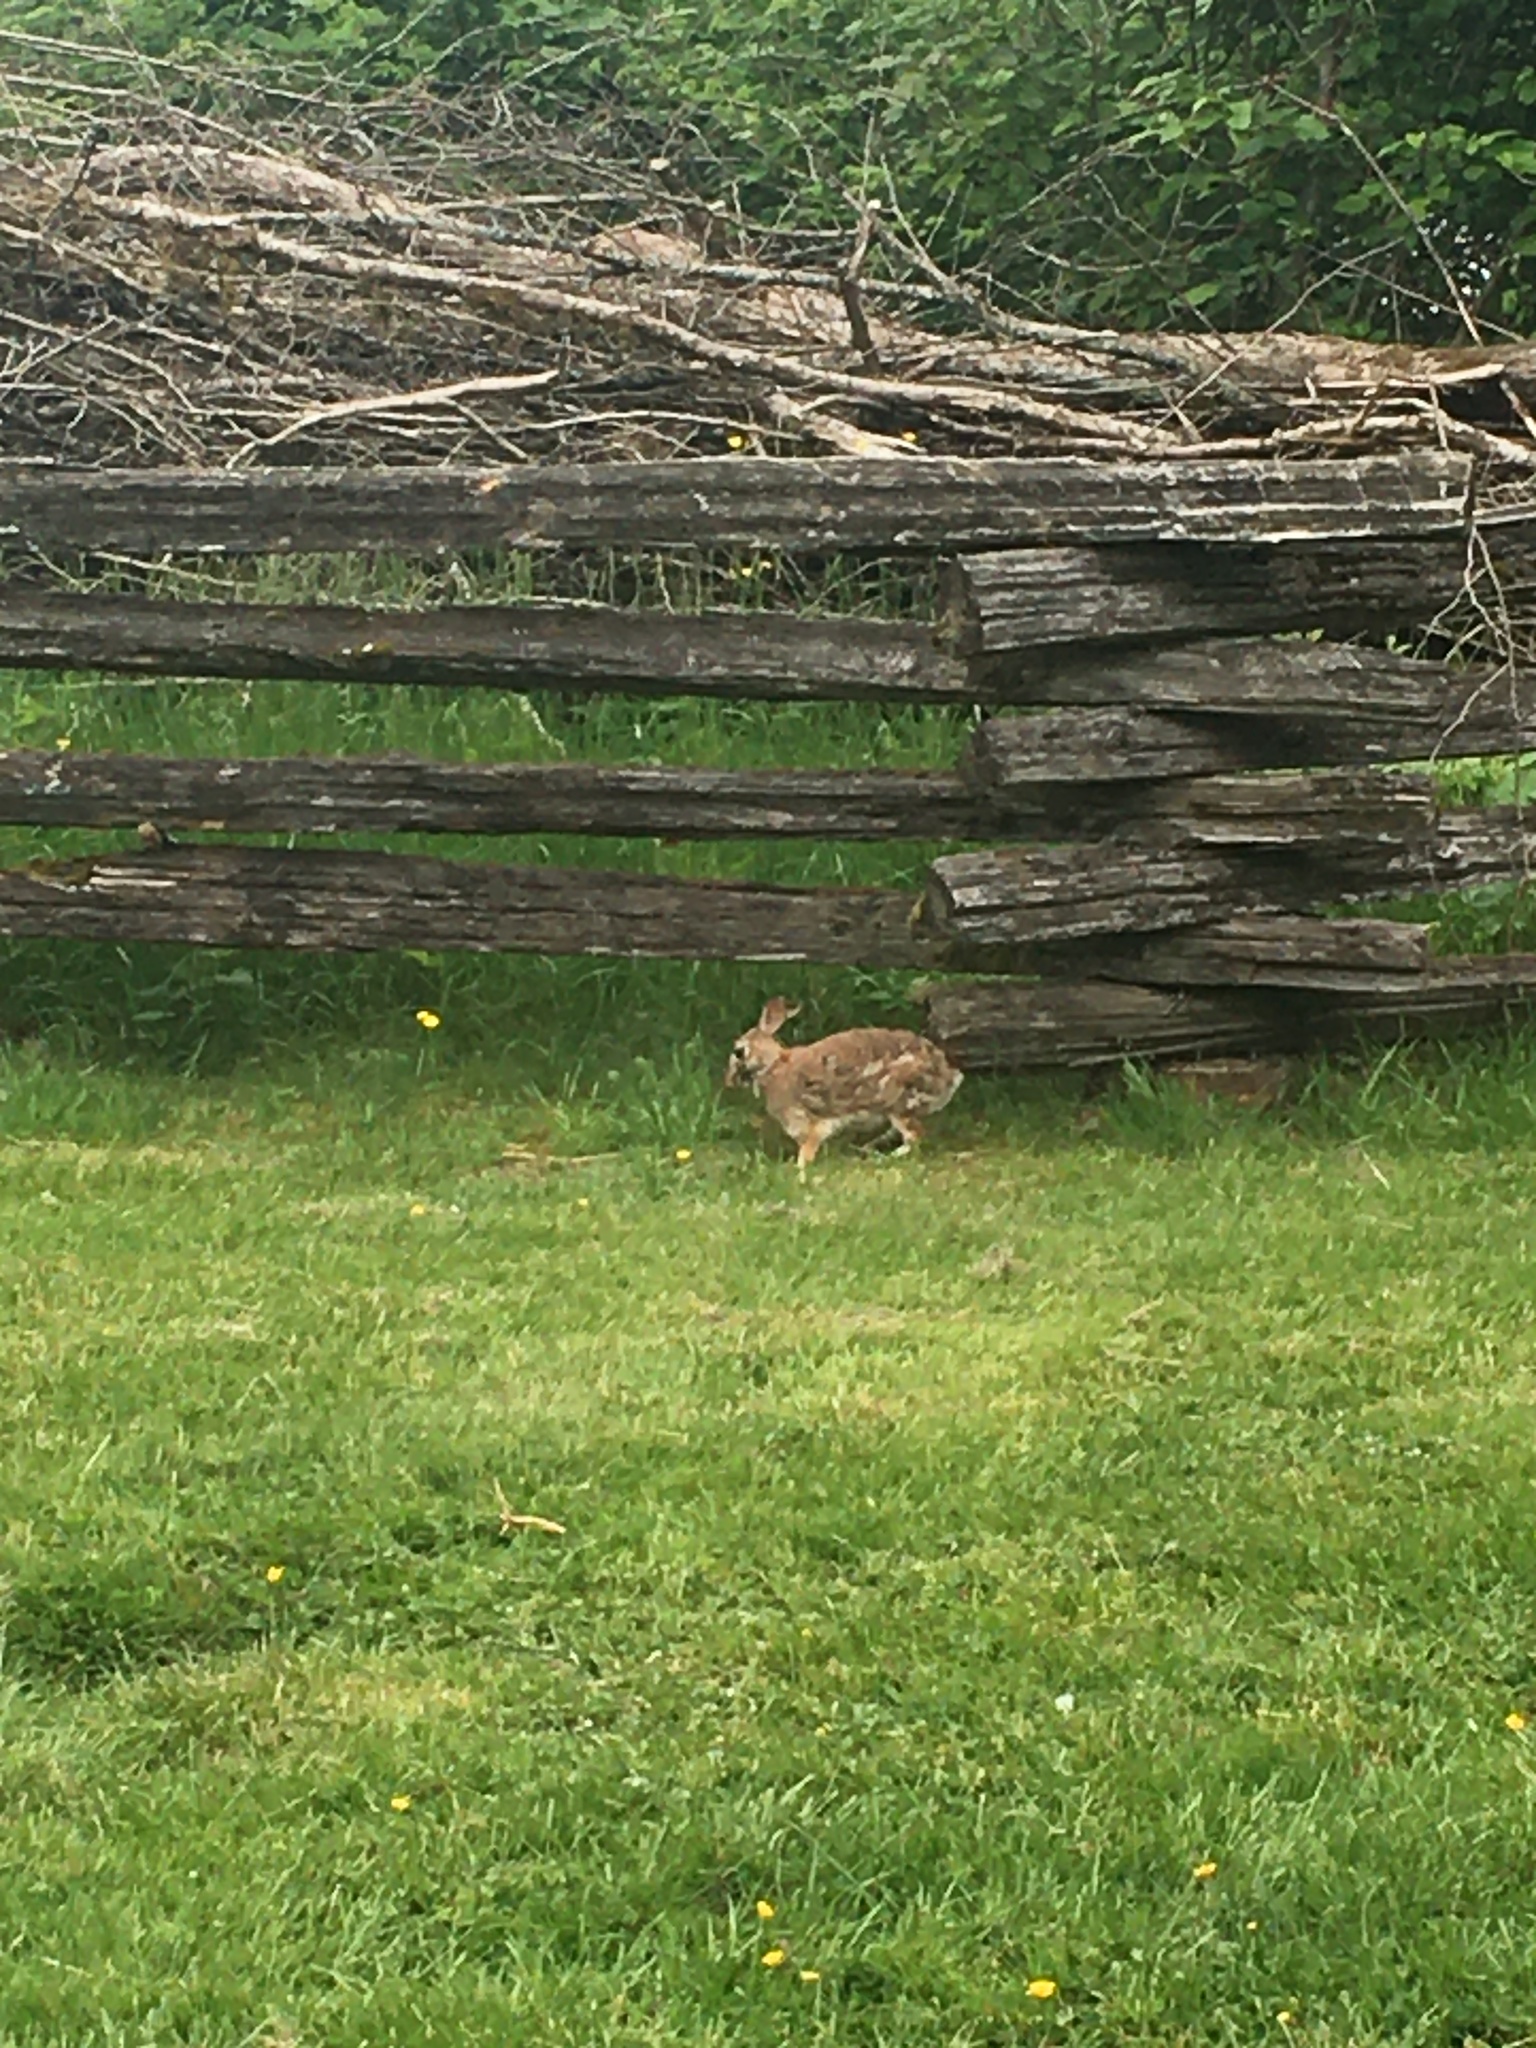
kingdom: Animalia
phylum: Chordata
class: Mammalia
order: Lagomorpha
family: Leporidae
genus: Sylvilagus
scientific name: Sylvilagus floridanus
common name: Eastern cottontail
